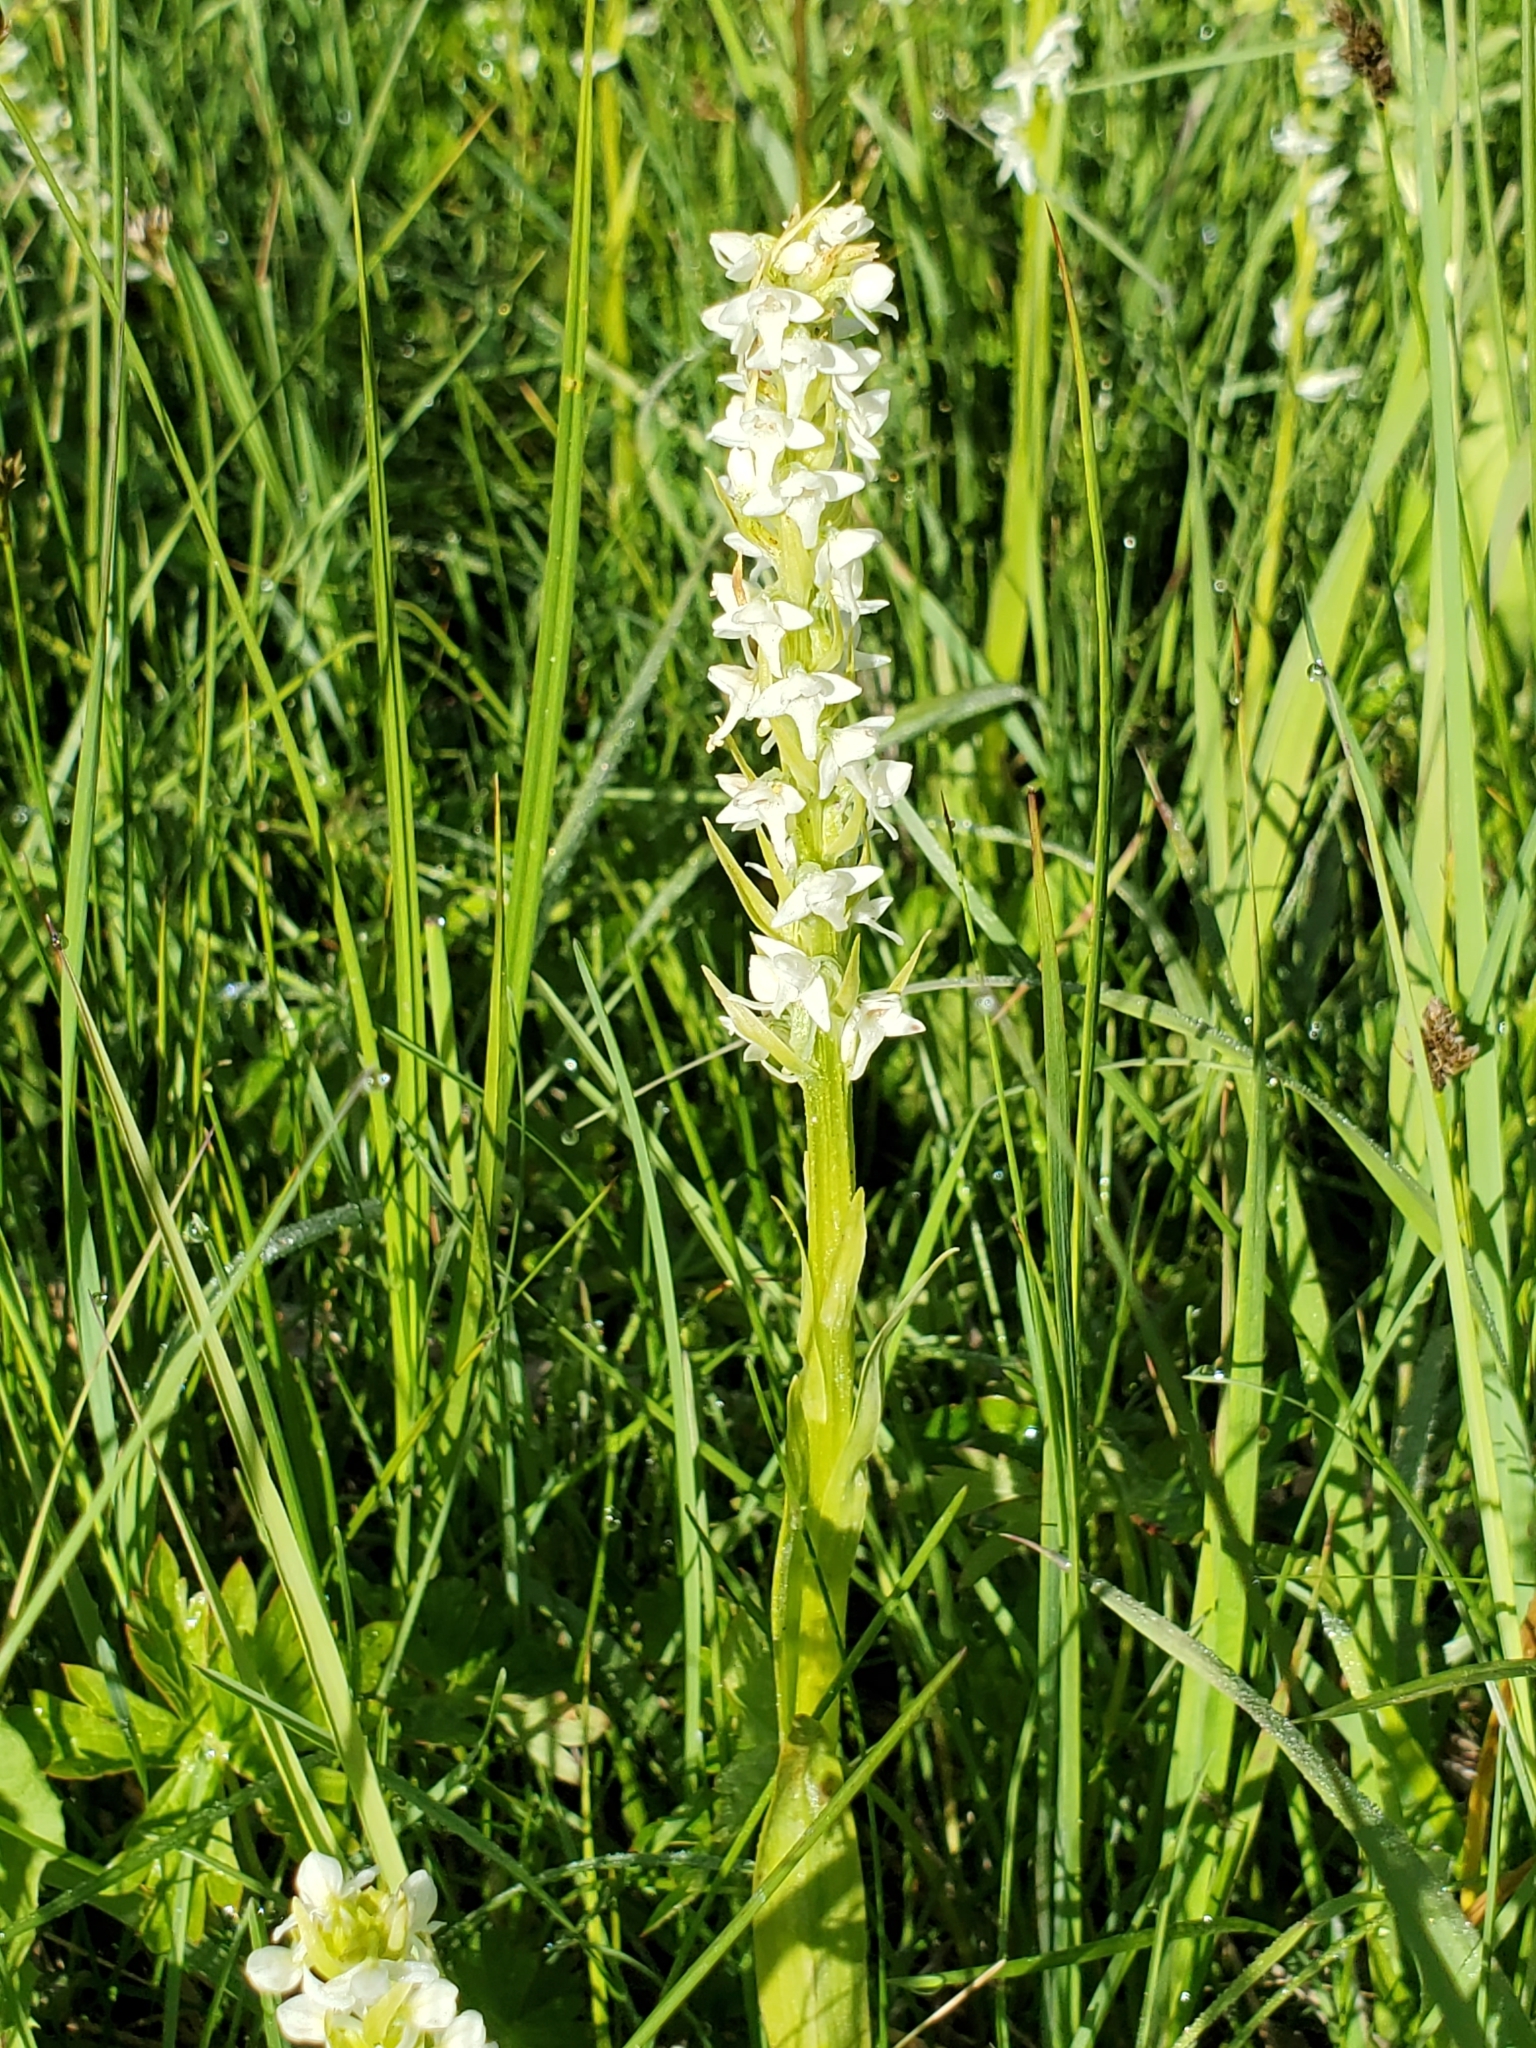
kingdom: Plantae
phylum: Tracheophyta
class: Liliopsida
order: Asparagales
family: Orchidaceae
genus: Platanthera
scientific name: Platanthera dilatata
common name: Bog candles
